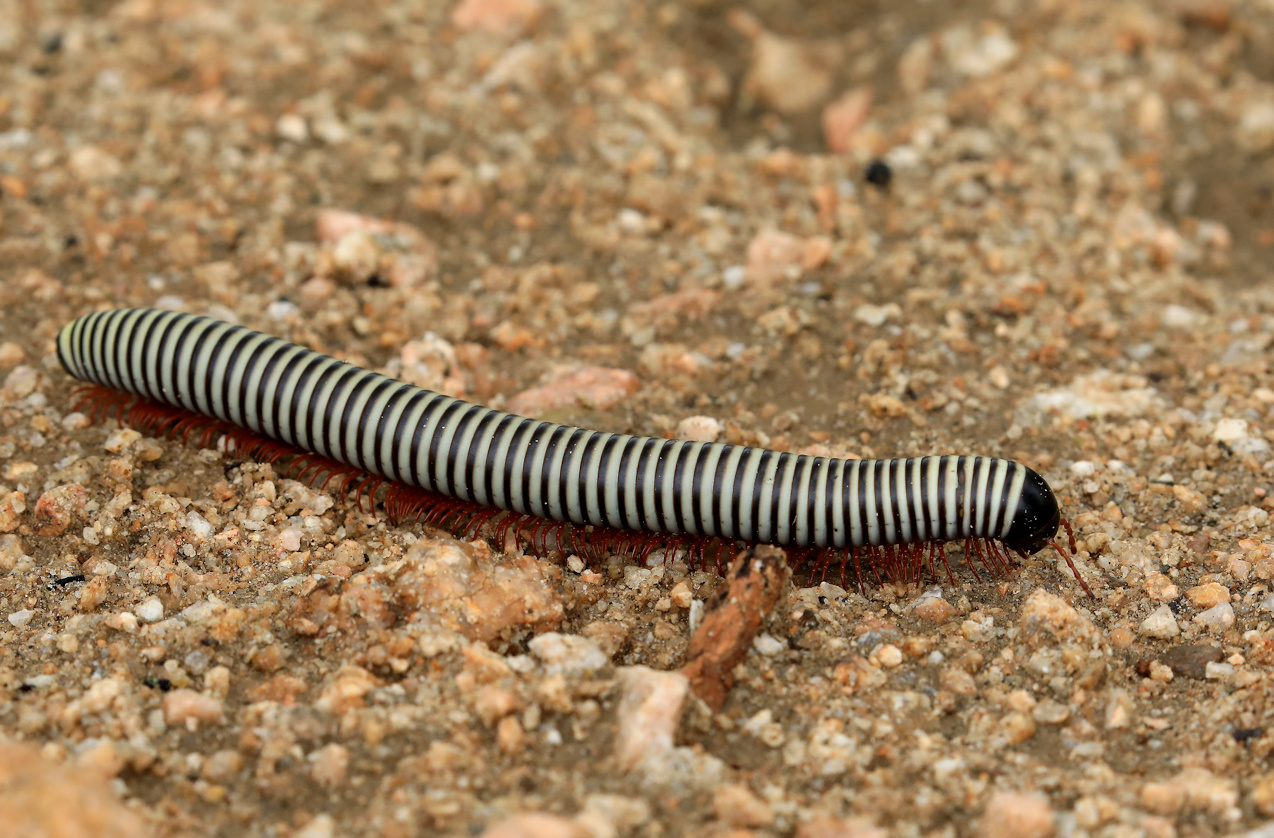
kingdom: Animalia
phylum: Arthropoda
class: Diplopoda
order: Spirostreptida
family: Spirostreptidae
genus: Doratogonus
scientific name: Doratogonus flavifilis
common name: Yellow-banded black millipede
